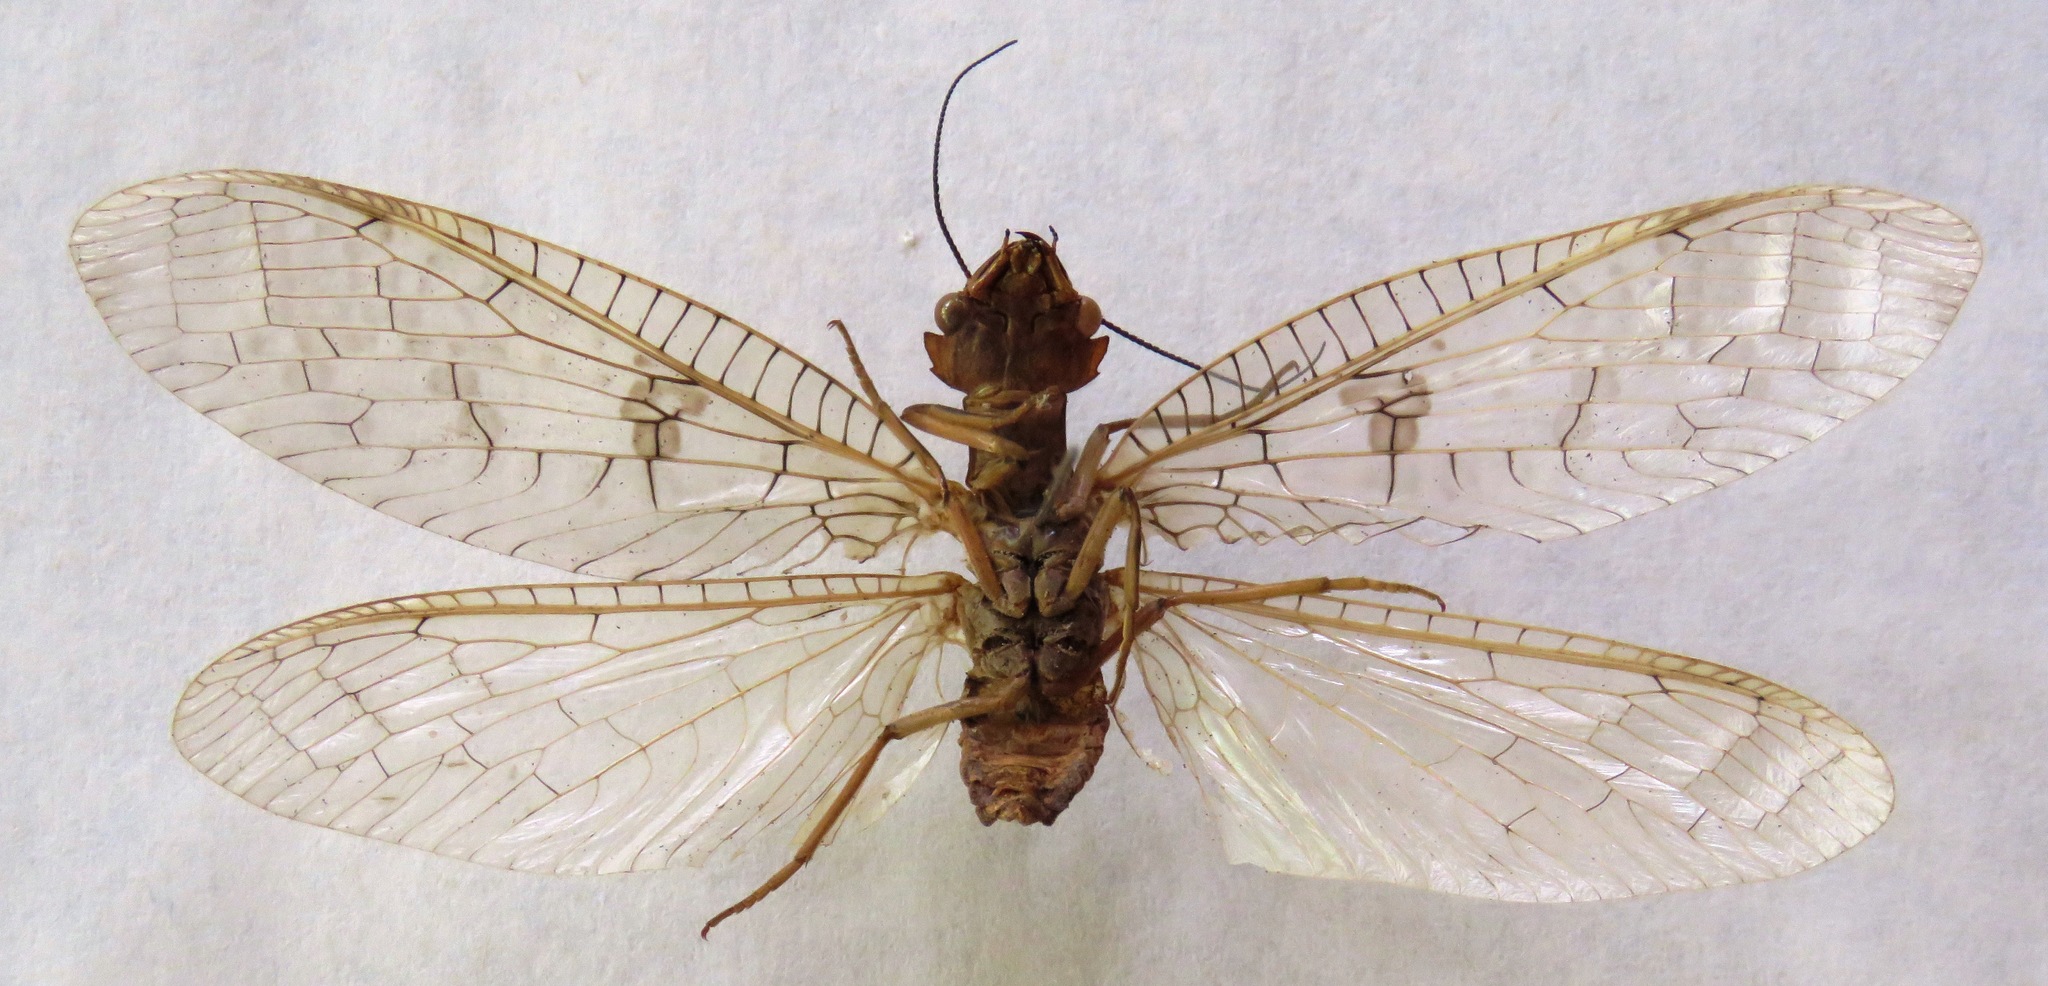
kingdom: Animalia
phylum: Arthropoda
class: Insecta
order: Megaloptera
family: Corydalidae
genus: Platyneuromus
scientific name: Platyneuromus soror
